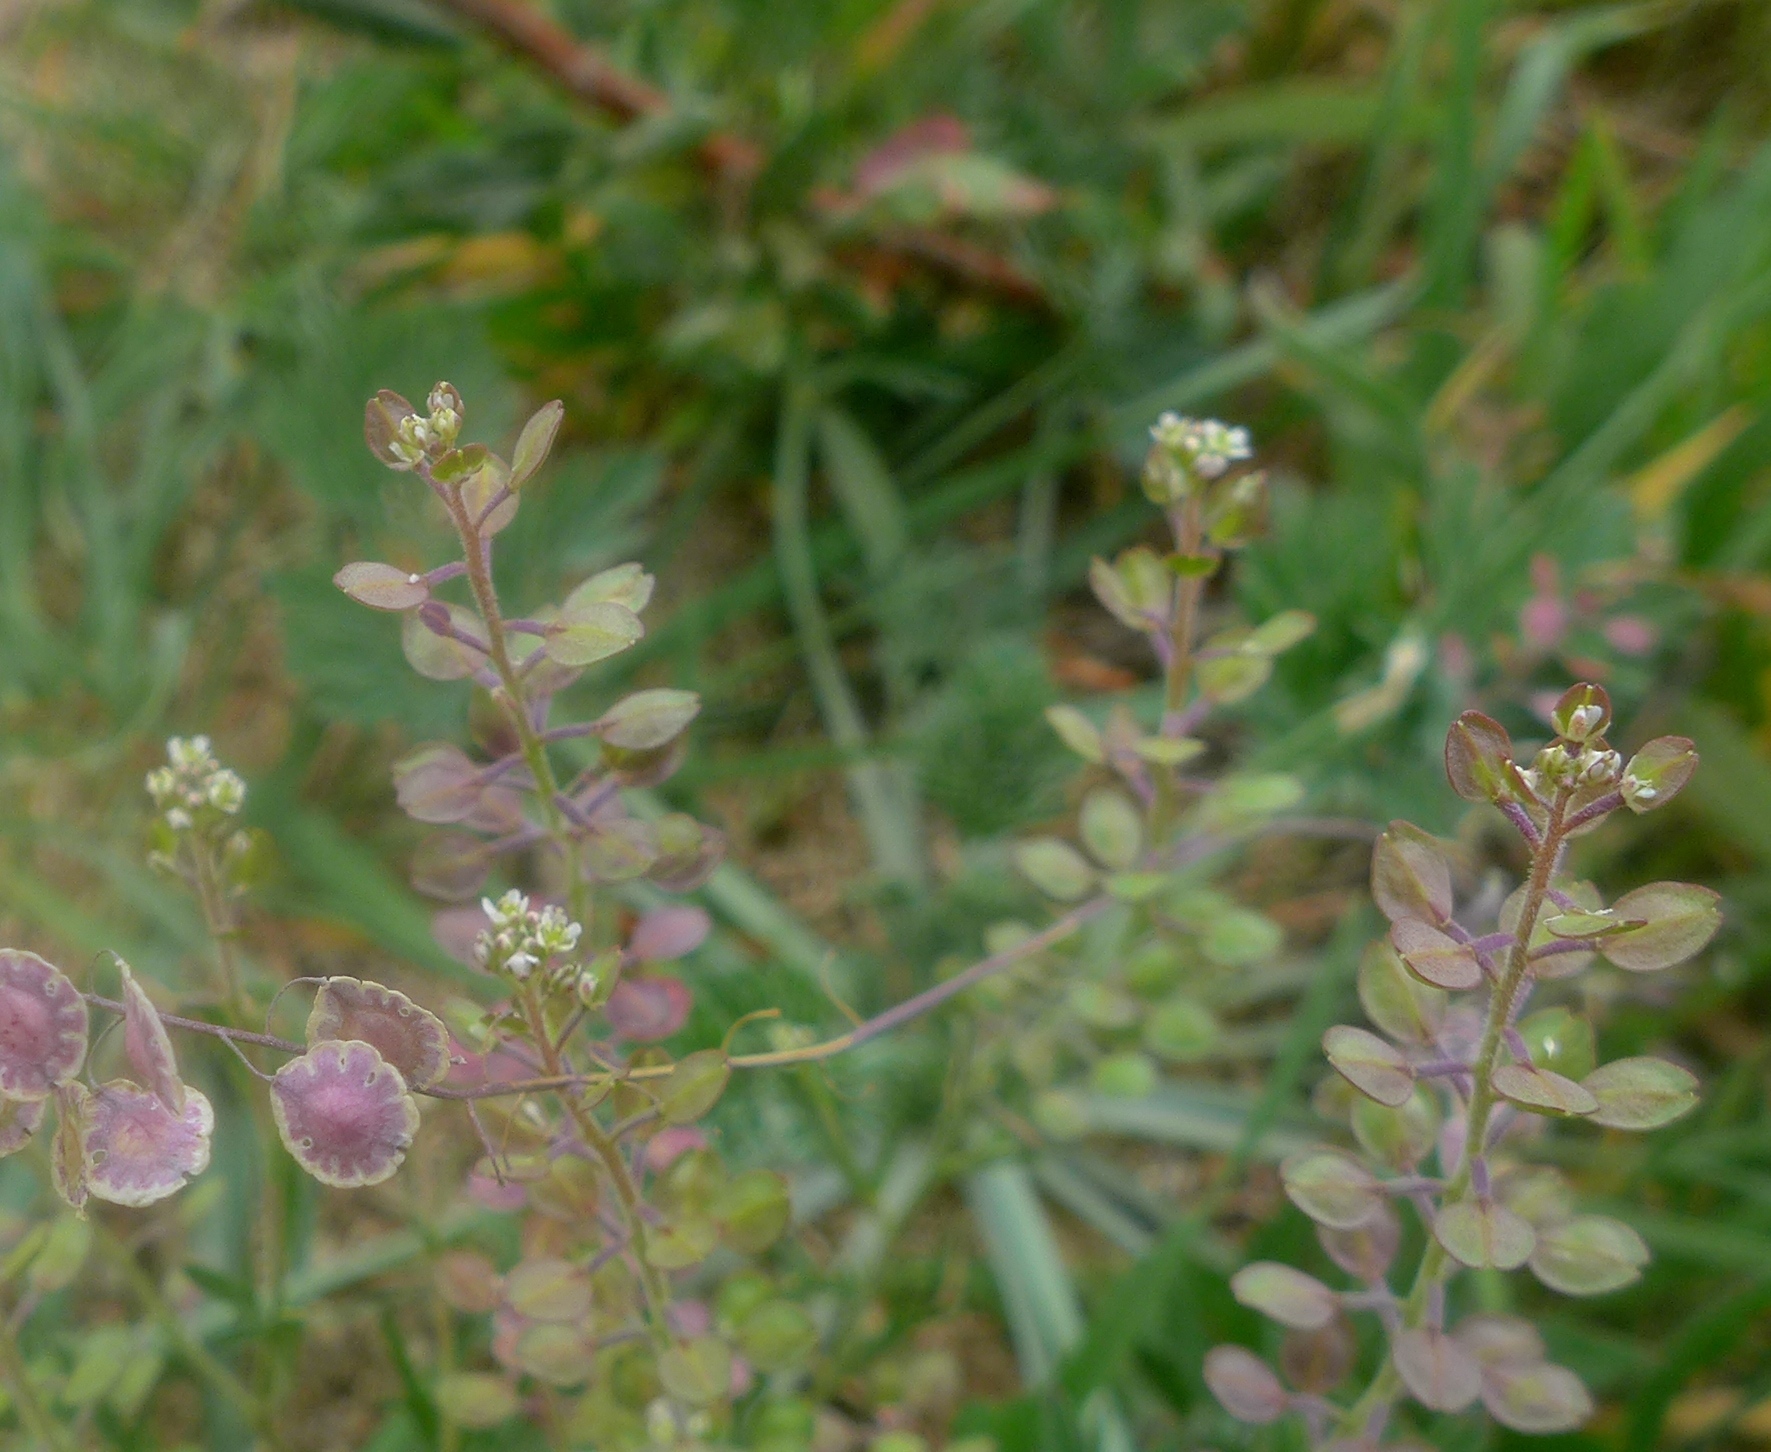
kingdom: Plantae
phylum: Tracheophyta
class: Magnoliopsida
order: Brassicales
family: Brassicaceae
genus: Thysanocarpus
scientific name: Thysanocarpus curvipes
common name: Sand fringepod
